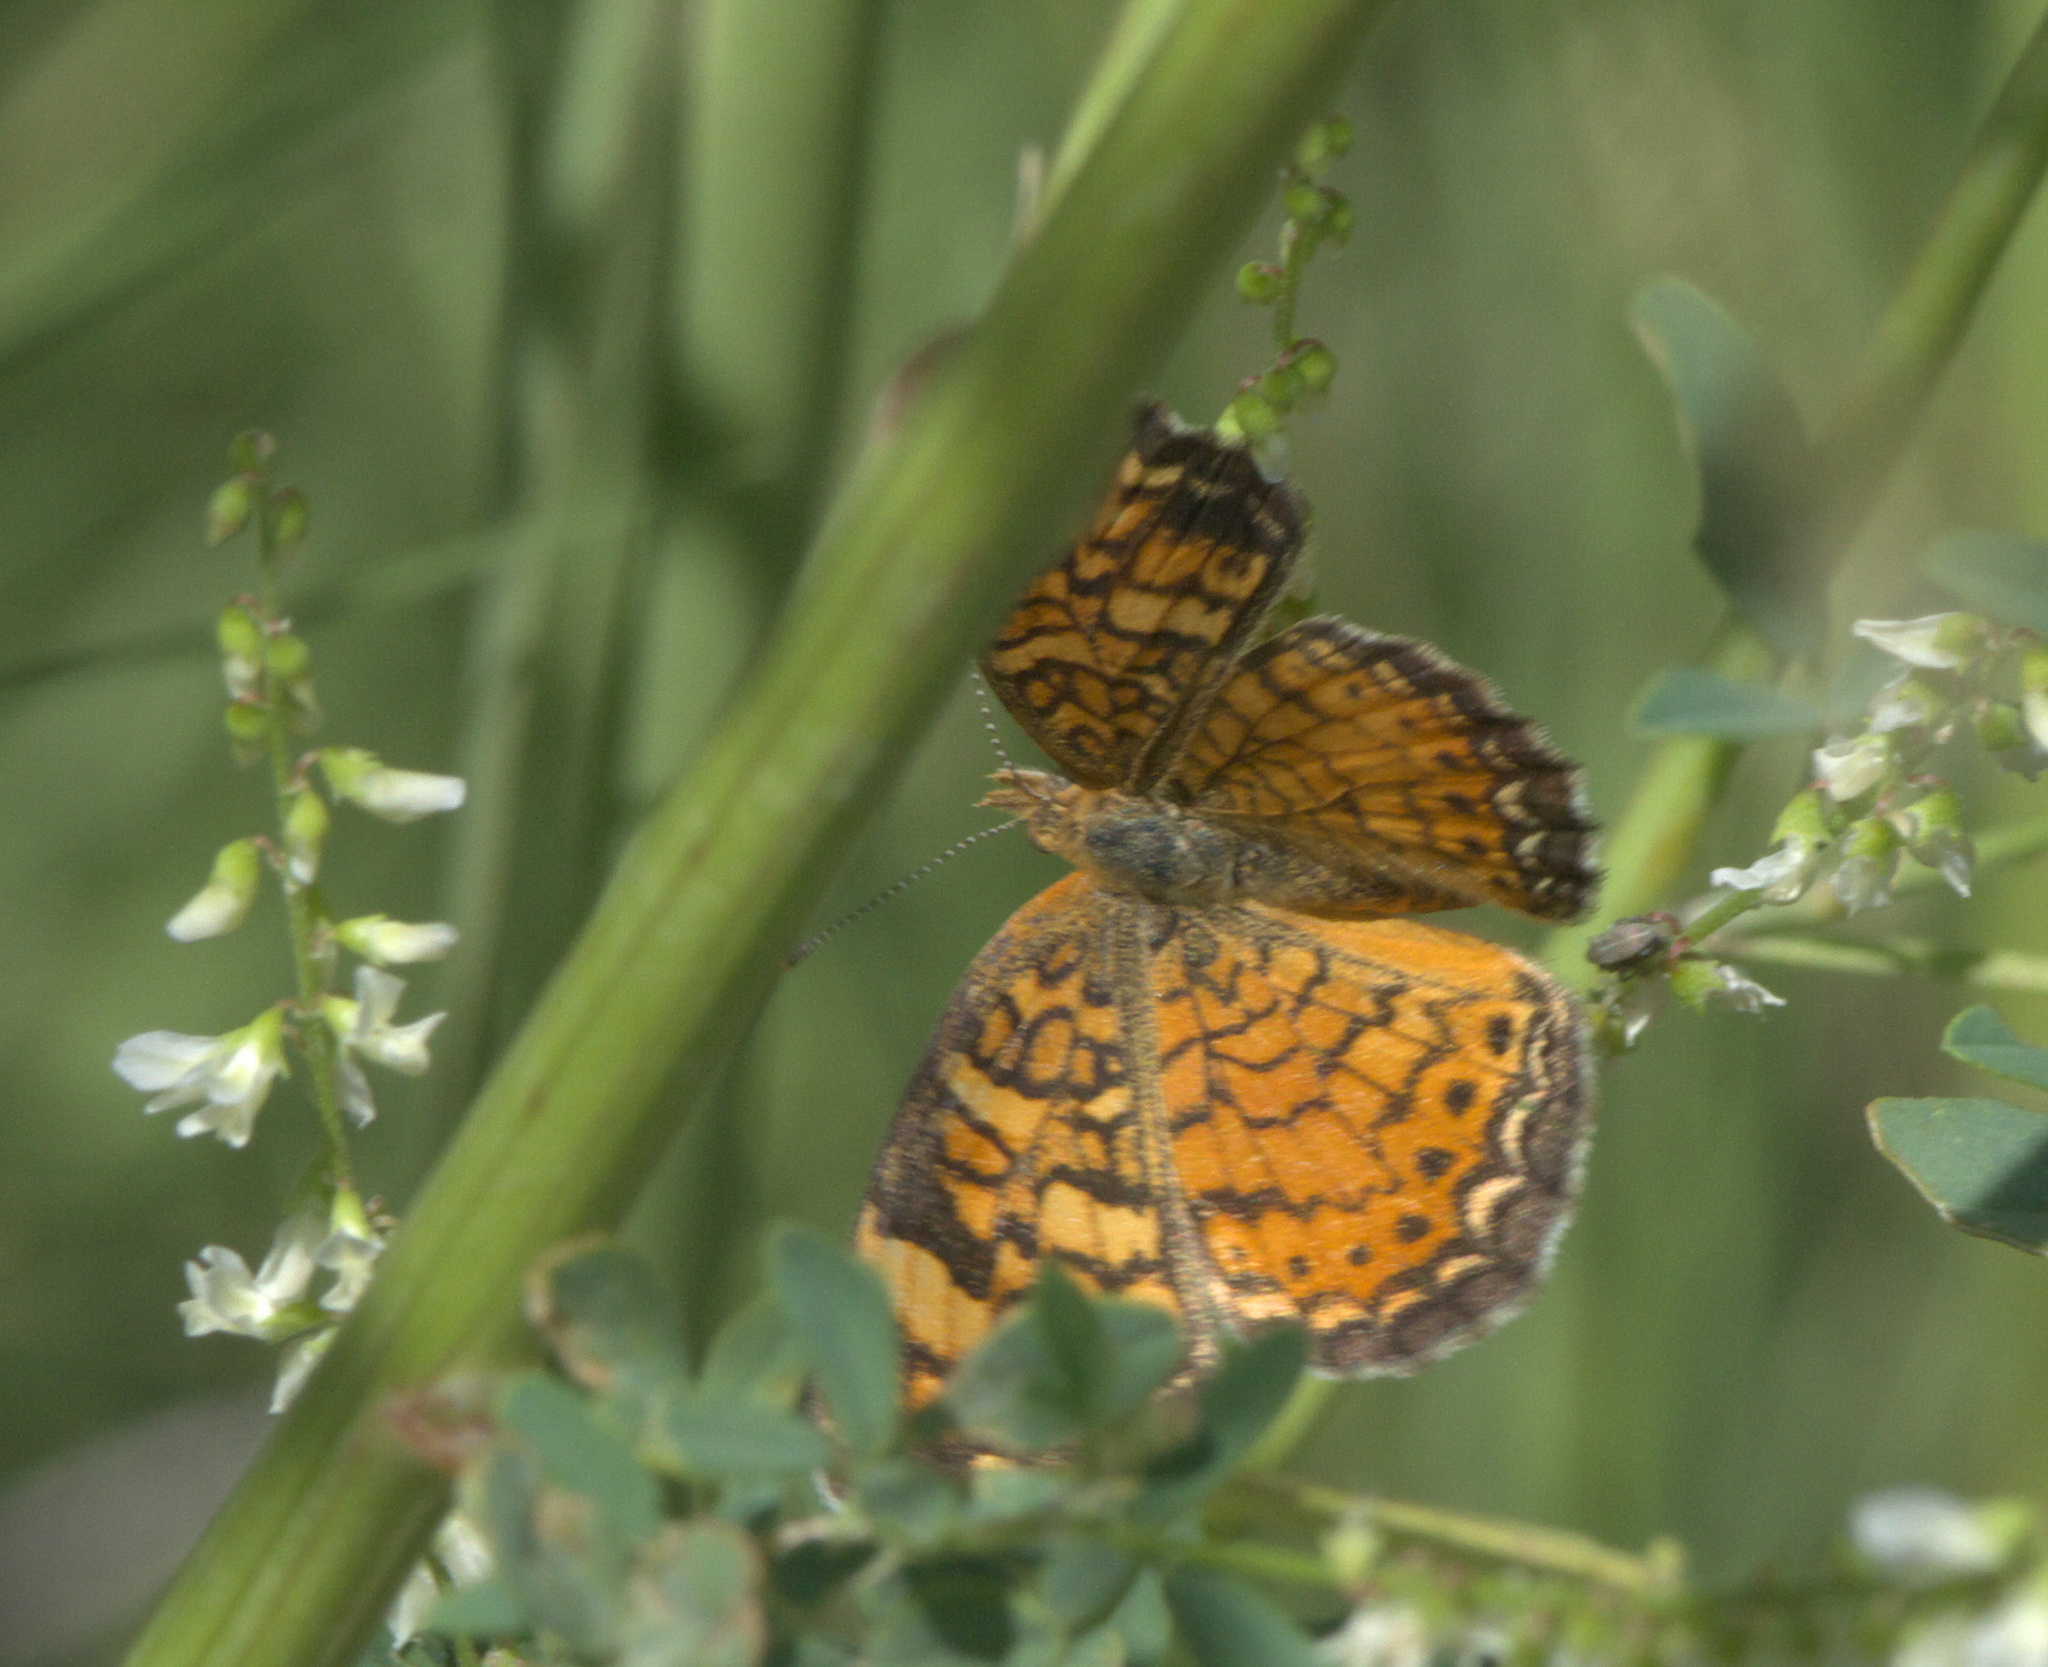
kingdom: Animalia
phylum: Arthropoda
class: Insecta
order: Lepidoptera
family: Nymphalidae
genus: Phyciodes
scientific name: Phyciodes tharos
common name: Pearl crescent
